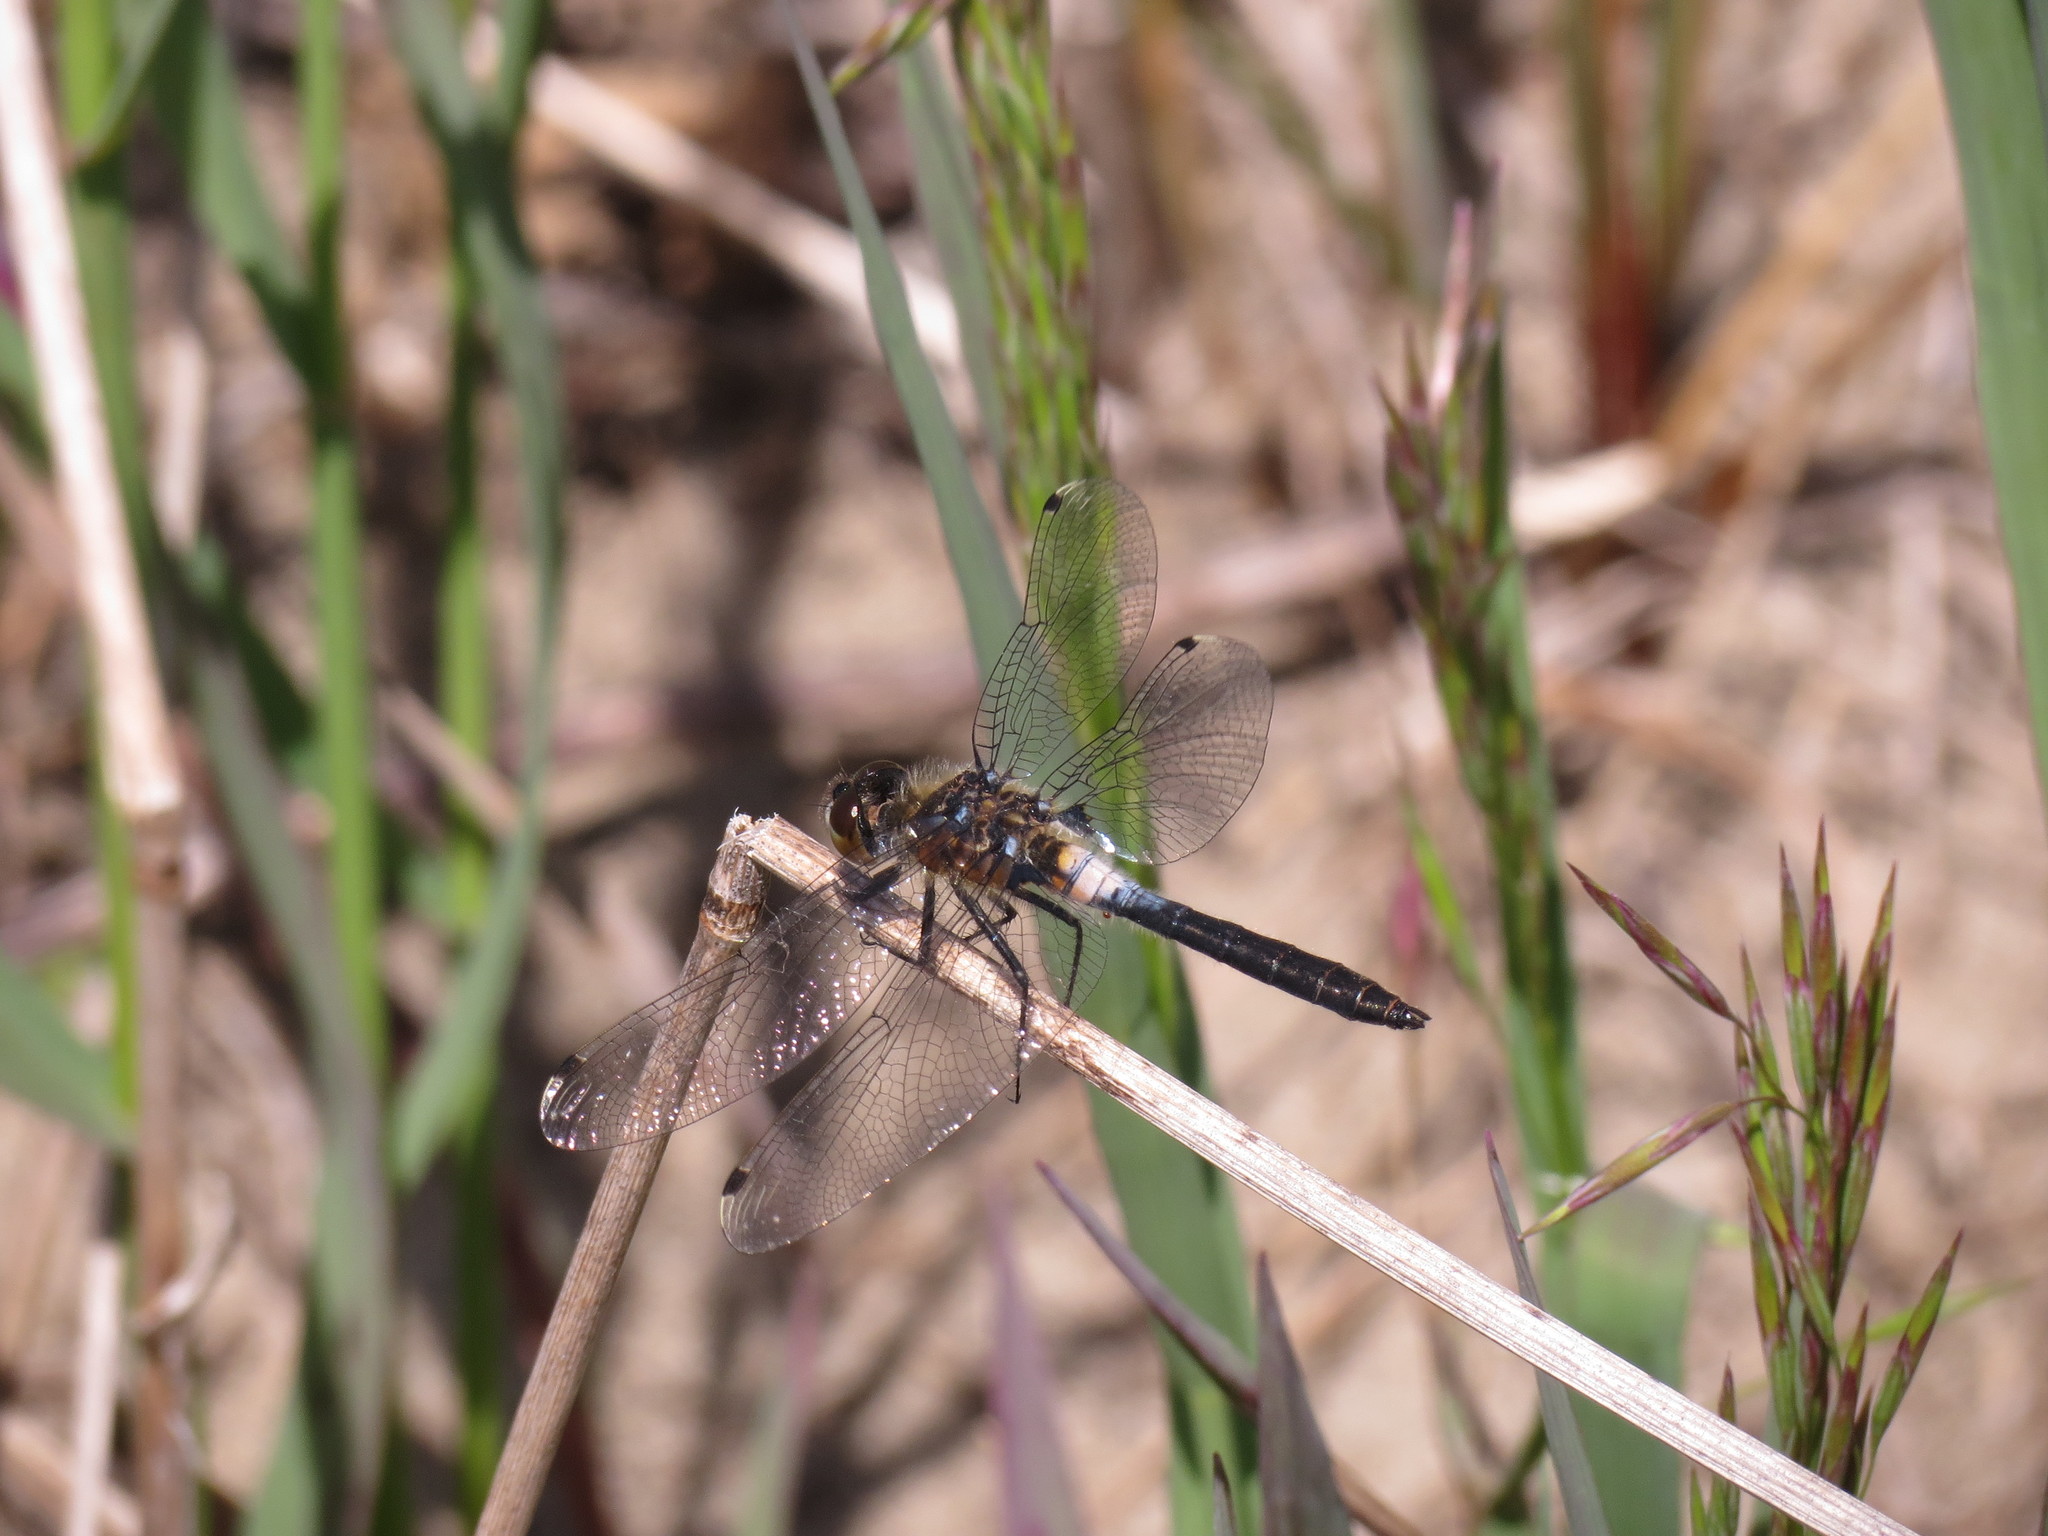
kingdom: Animalia
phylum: Arthropoda
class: Insecta
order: Odonata
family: Libellulidae
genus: Leucorrhinia
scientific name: Leucorrhinia frigida
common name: Frosted whiteface
